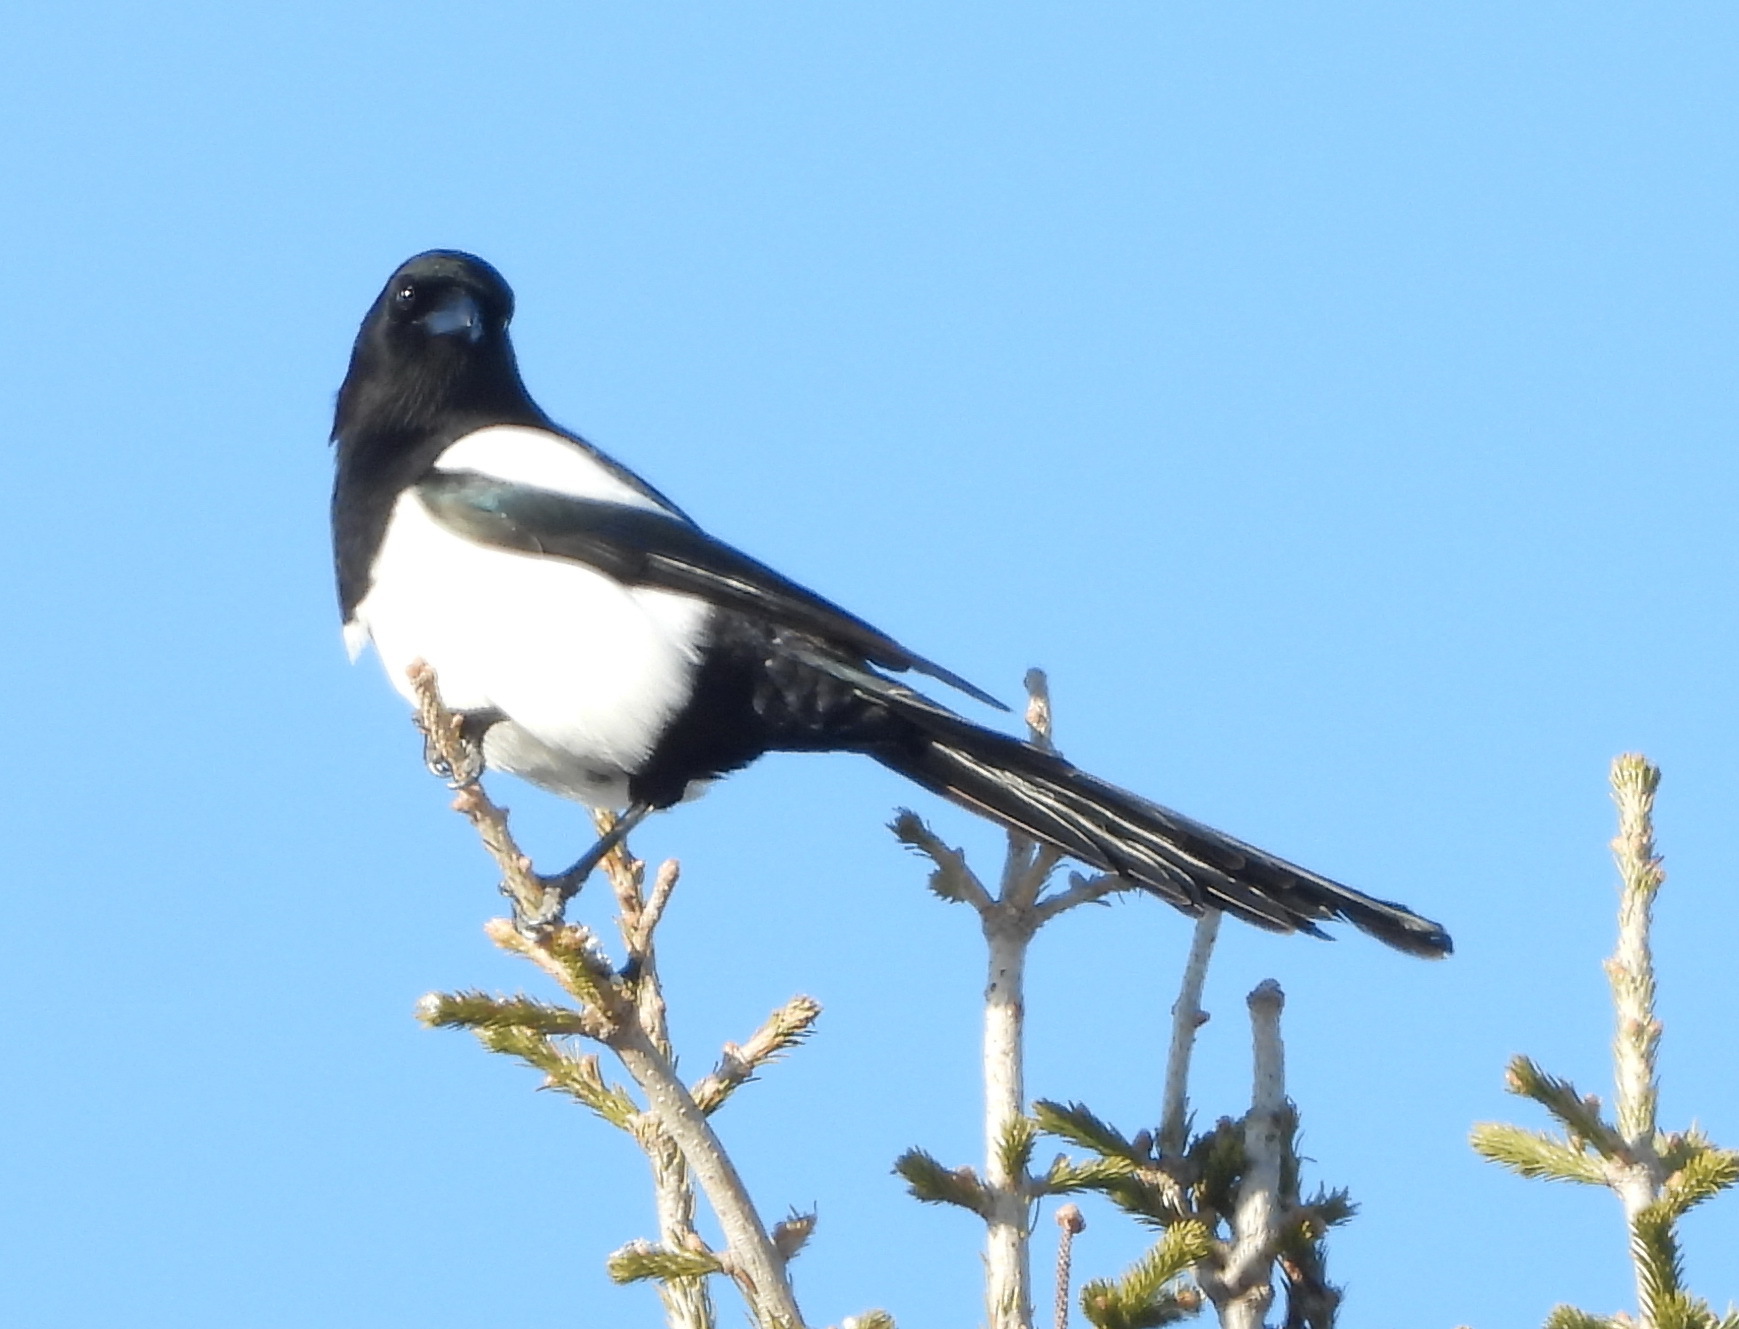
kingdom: Animalia
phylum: Chordata
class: Aves
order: Passeriformes
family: Corvidae
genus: Pica
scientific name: Pica pica
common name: Eurasian magpie
